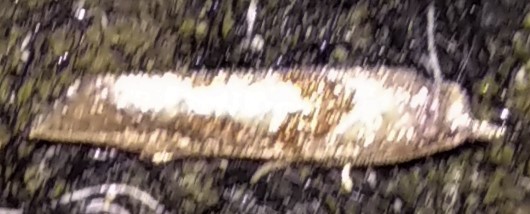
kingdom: Animalia
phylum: Arthropoda
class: Insecta
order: Lepidoptera
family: Tortricidae
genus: Pelochrista
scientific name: Pelochrista similiana
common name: Similar eucosma
